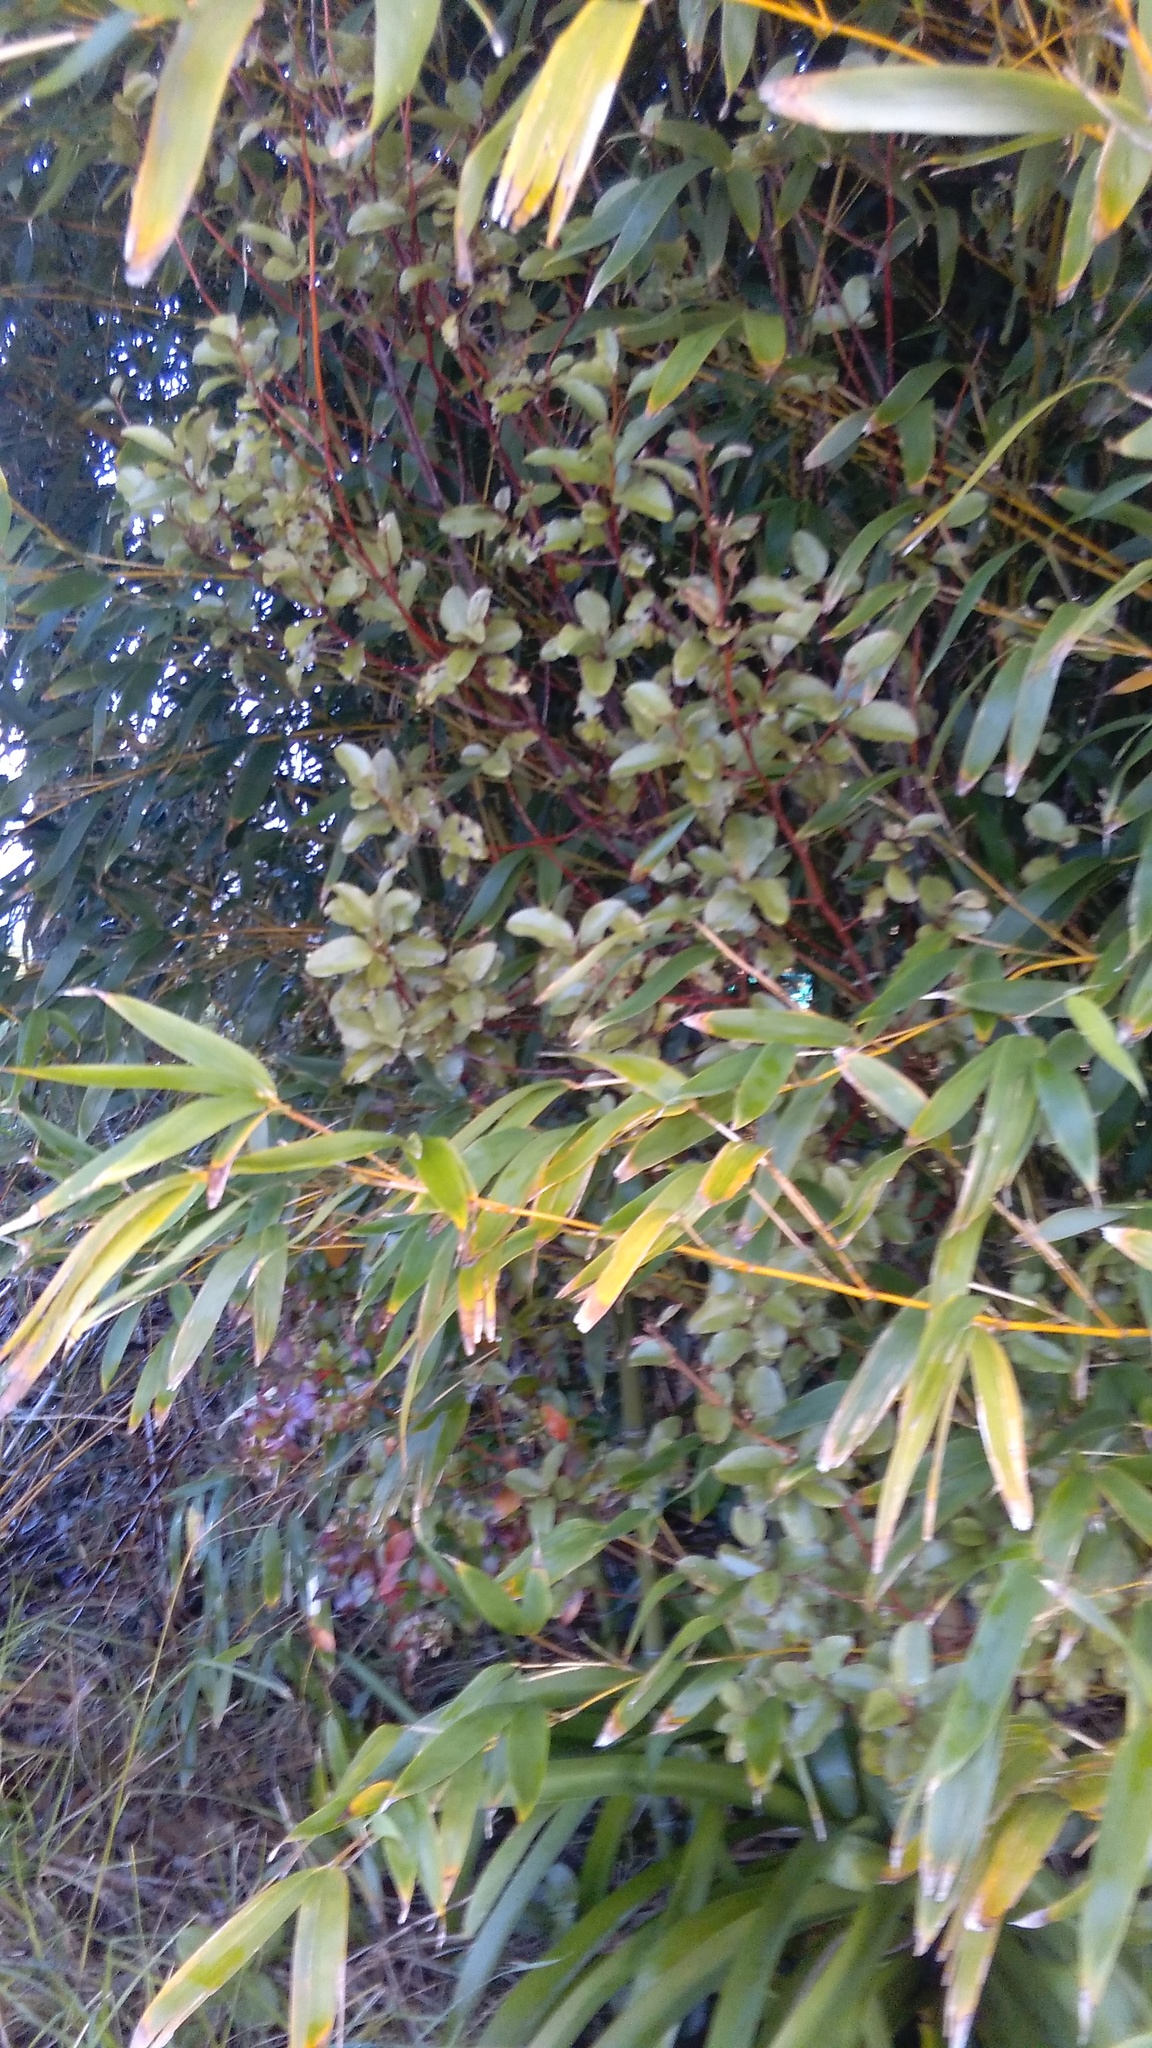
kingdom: Plantae
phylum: Tracheophyta
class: Magnoliopsida
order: Ericales
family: Primulaceae
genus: Myrsine
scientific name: Myrsine australis
